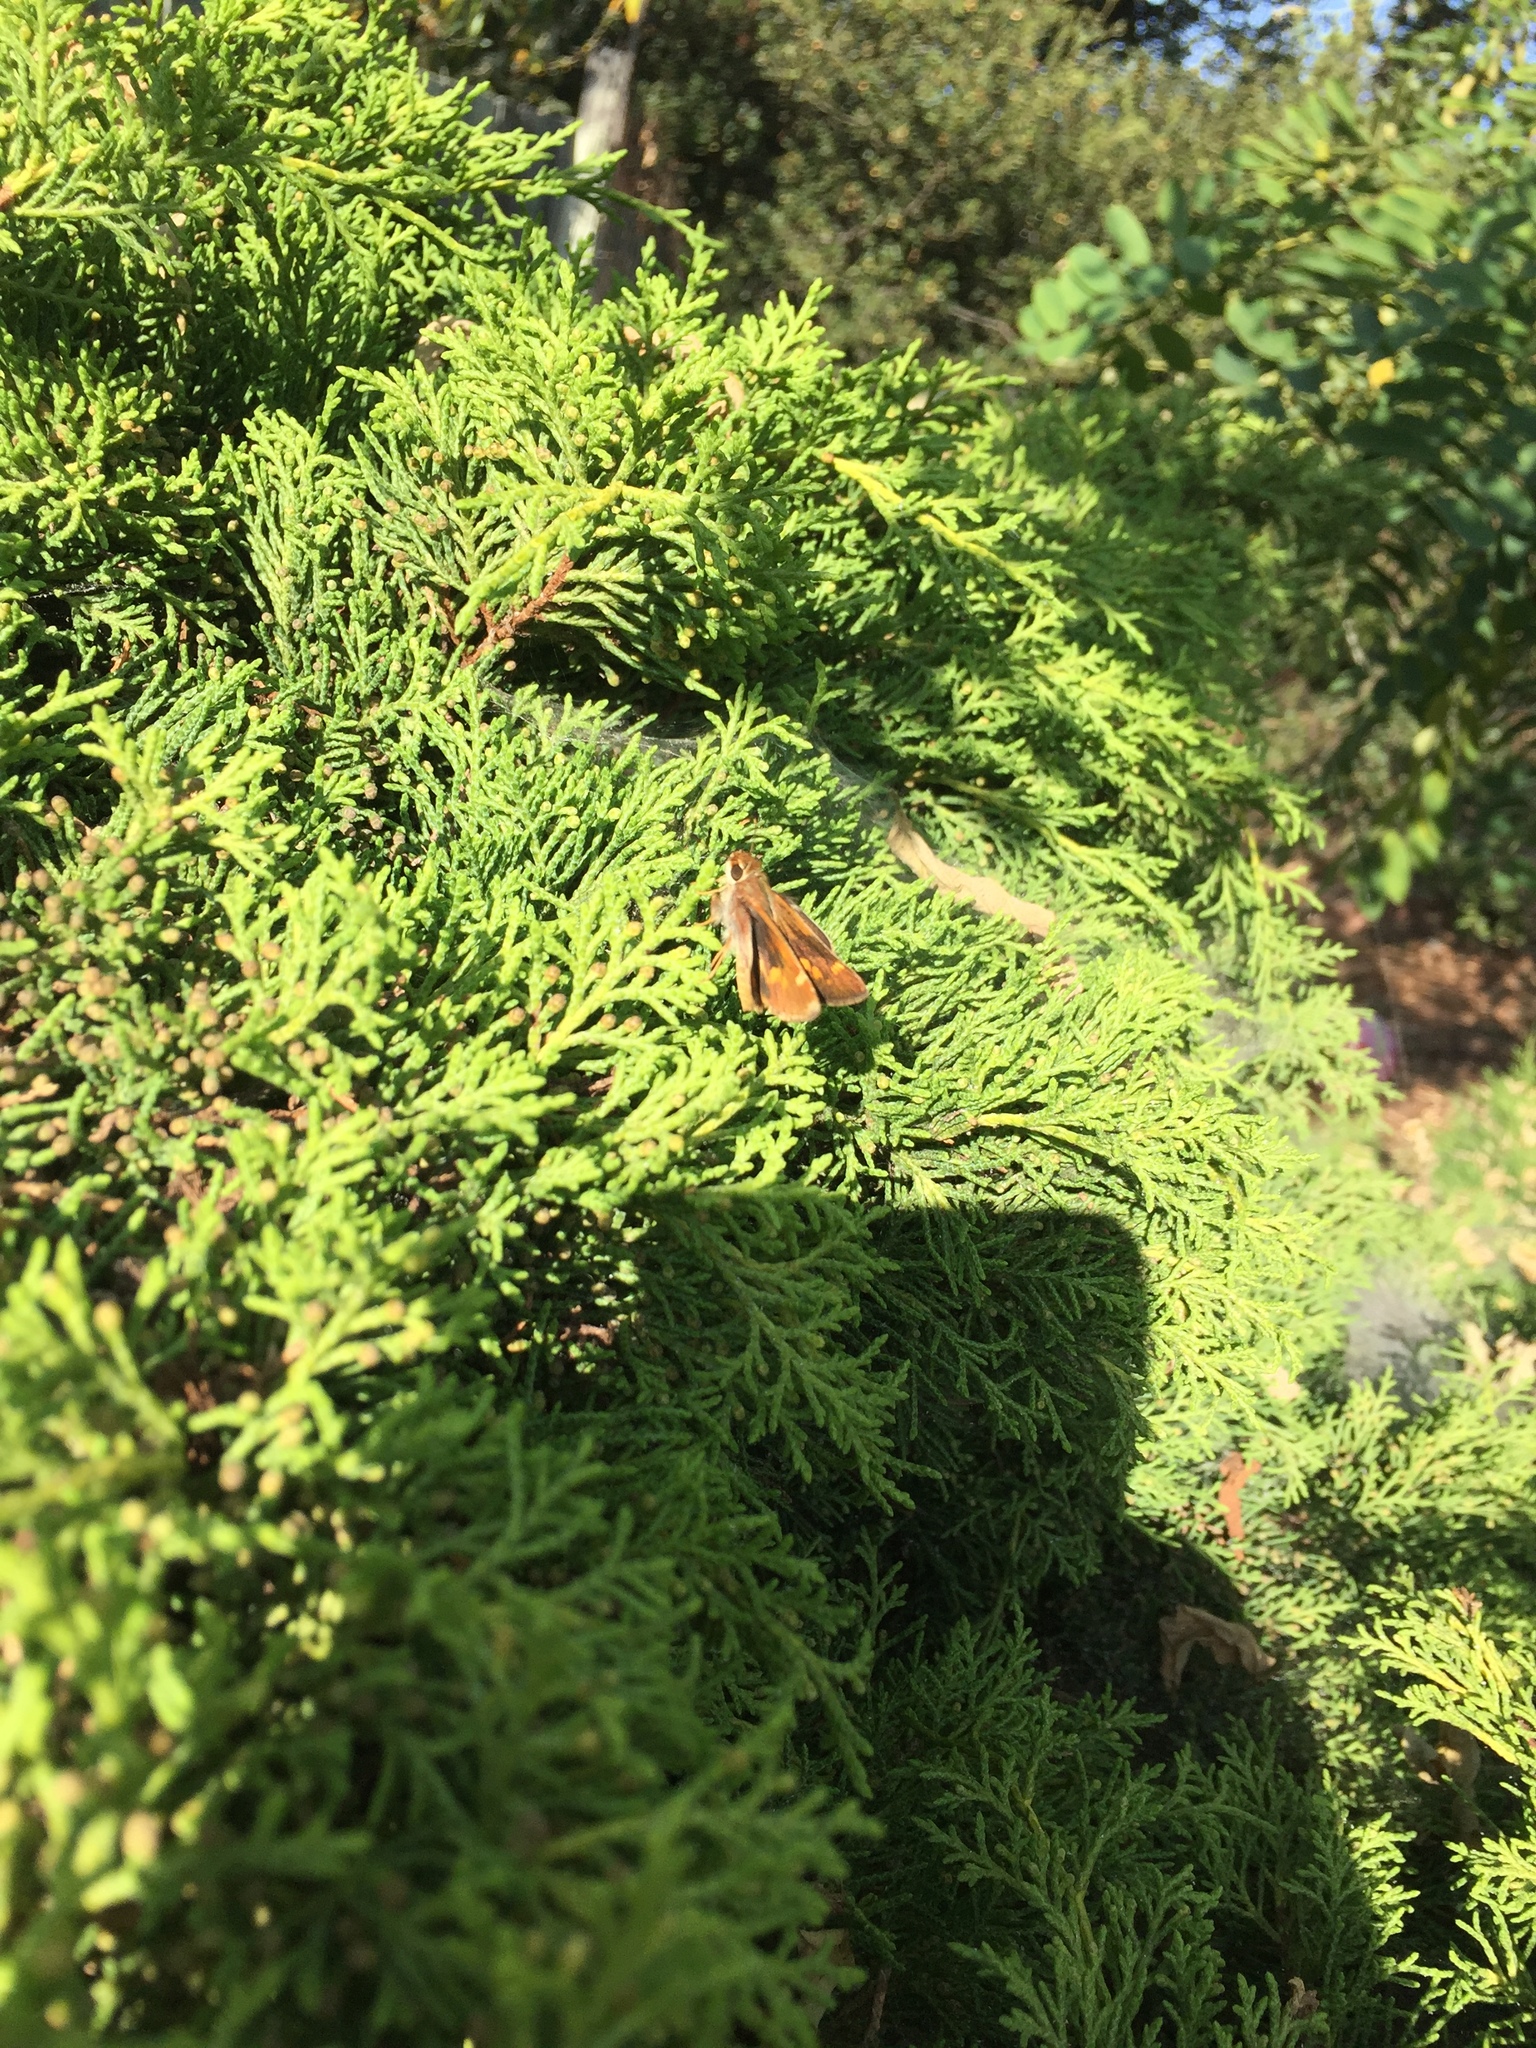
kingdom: Animalia
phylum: Arthropoda
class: Insecta
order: Lepidoptera
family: Hesperiidae
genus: Lon
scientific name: Lon melane
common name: Umber skipper
